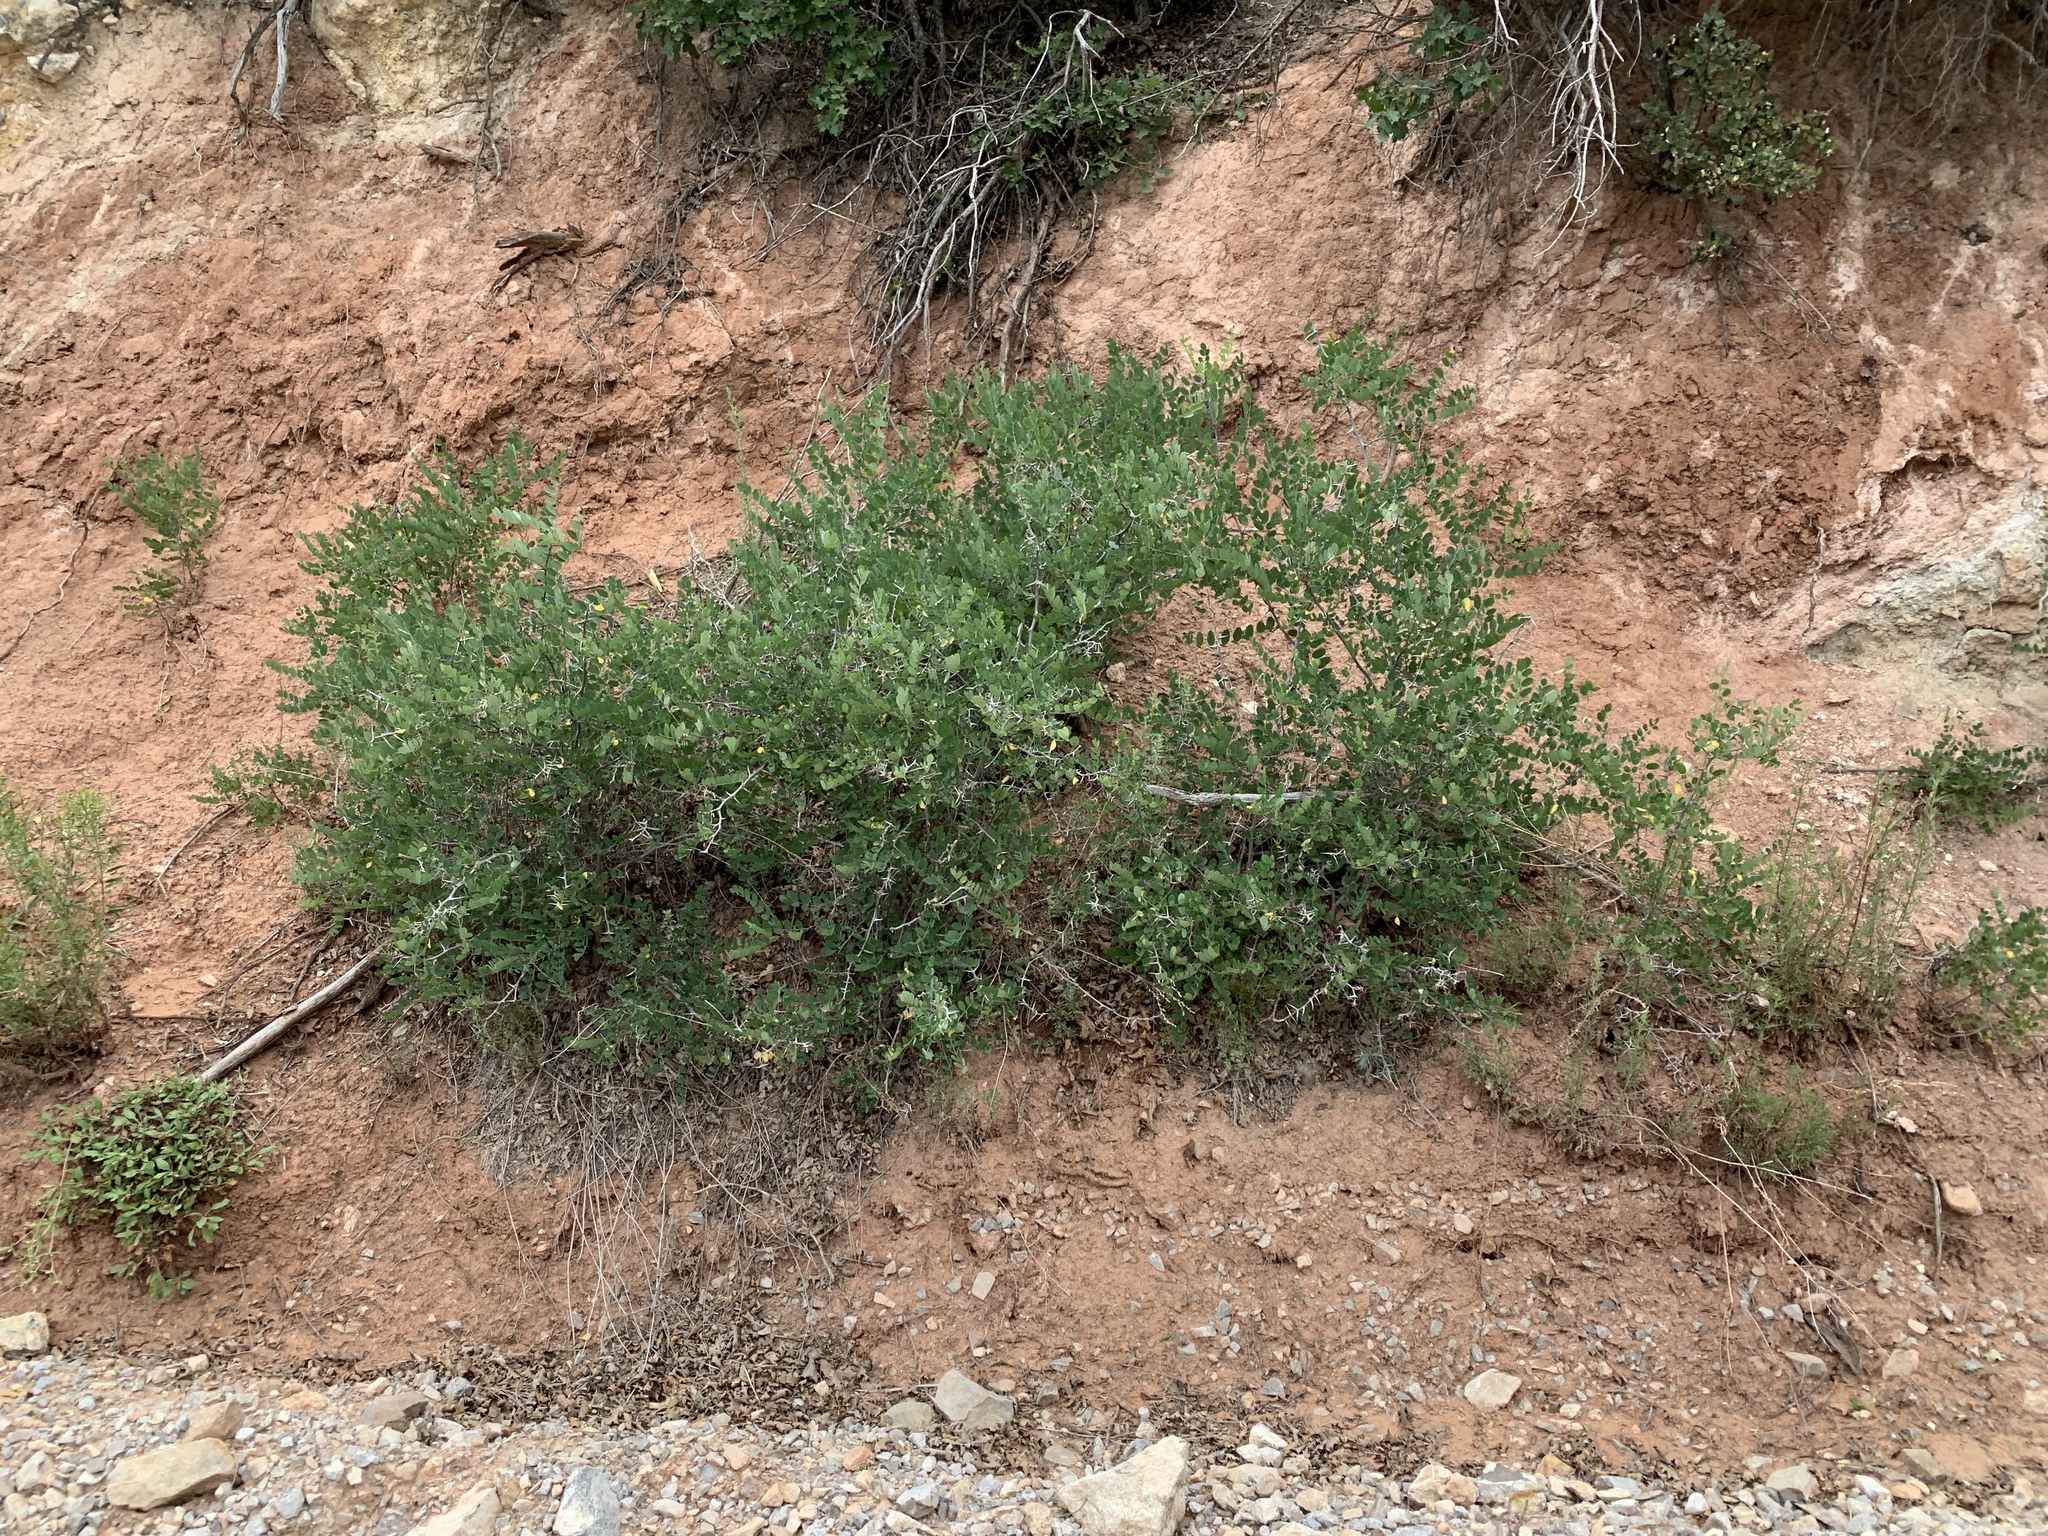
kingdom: Plantae
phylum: Tracheophyta
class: Magnoliopsida
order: Fabales
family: Fabaceae
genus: Robinia
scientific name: Robinia neomexicana
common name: New mexico locust
